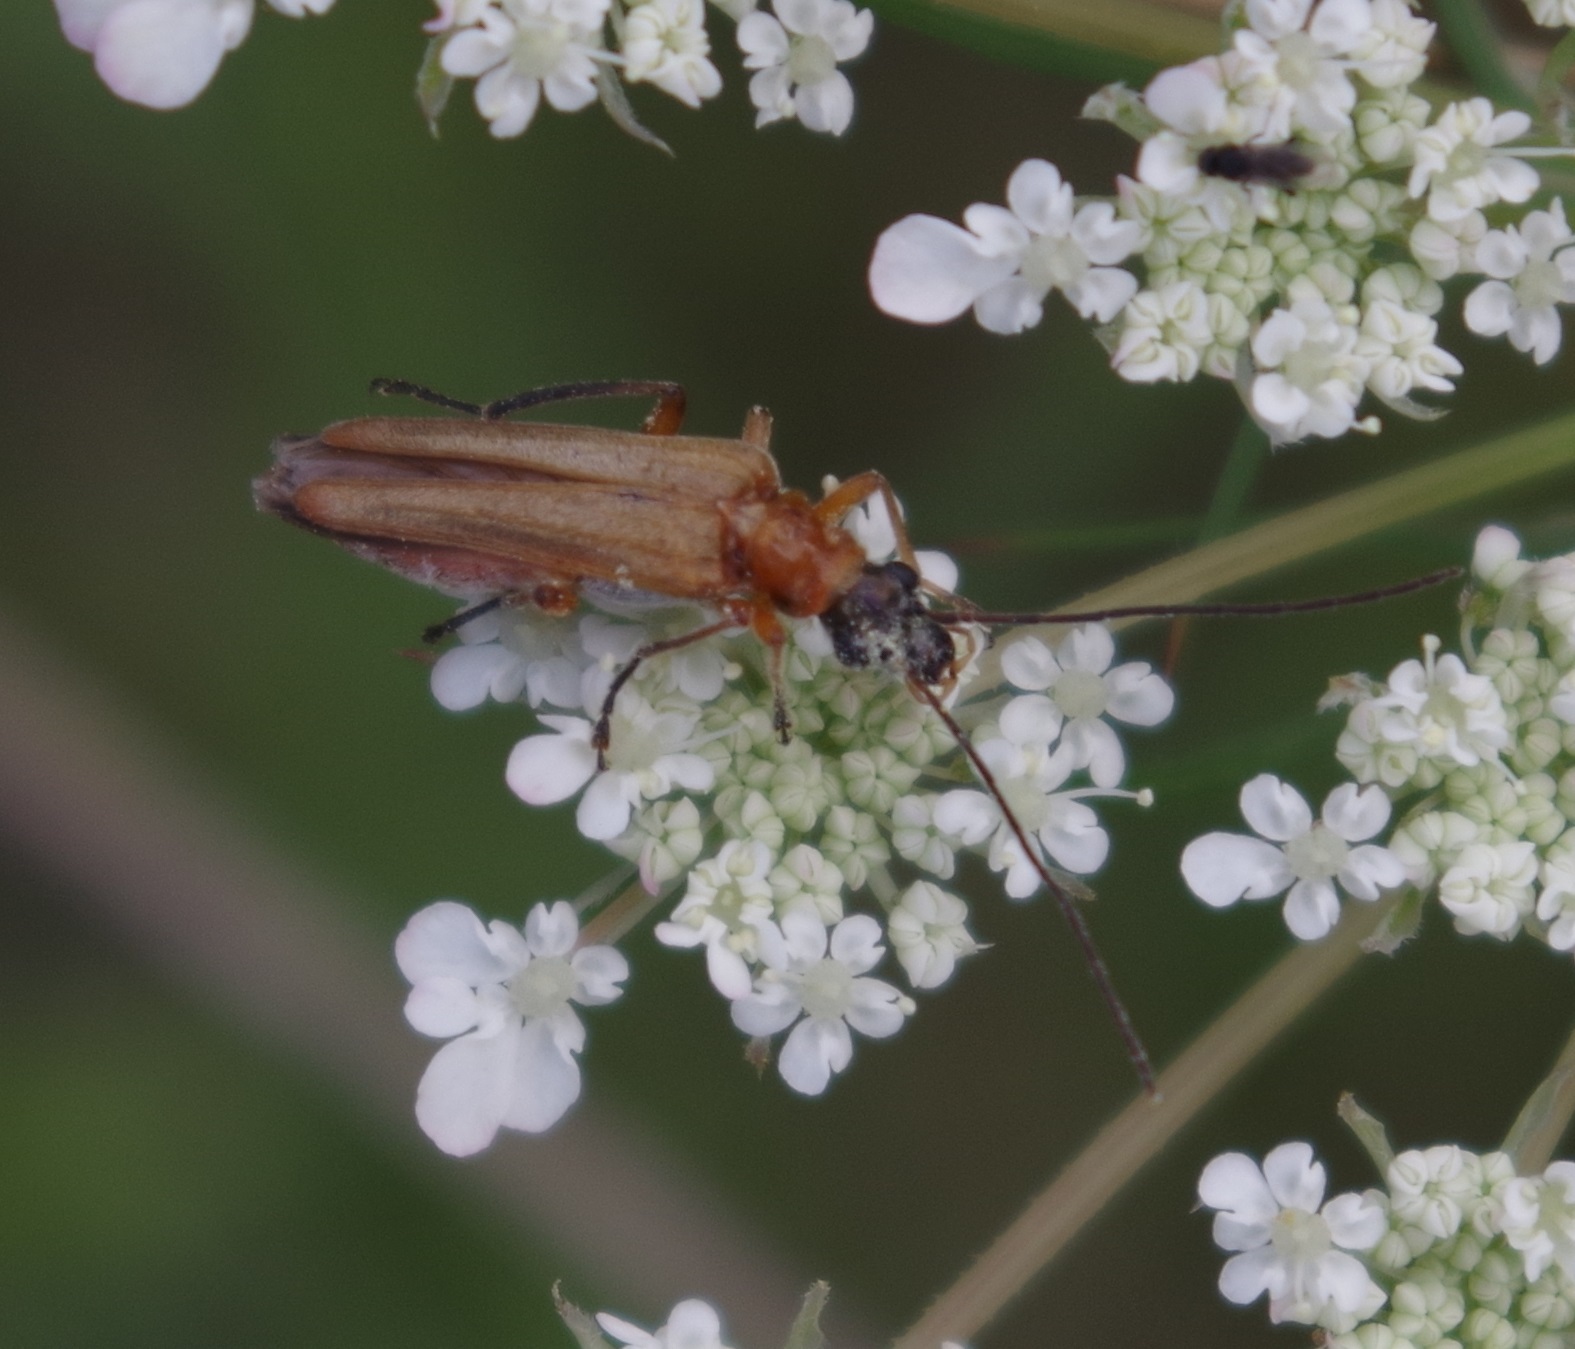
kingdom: Animalia
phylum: Arthropoda
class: Insecta
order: Coleoptera
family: Oedemeridae
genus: Oedemera
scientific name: Oedemera podagrariae
